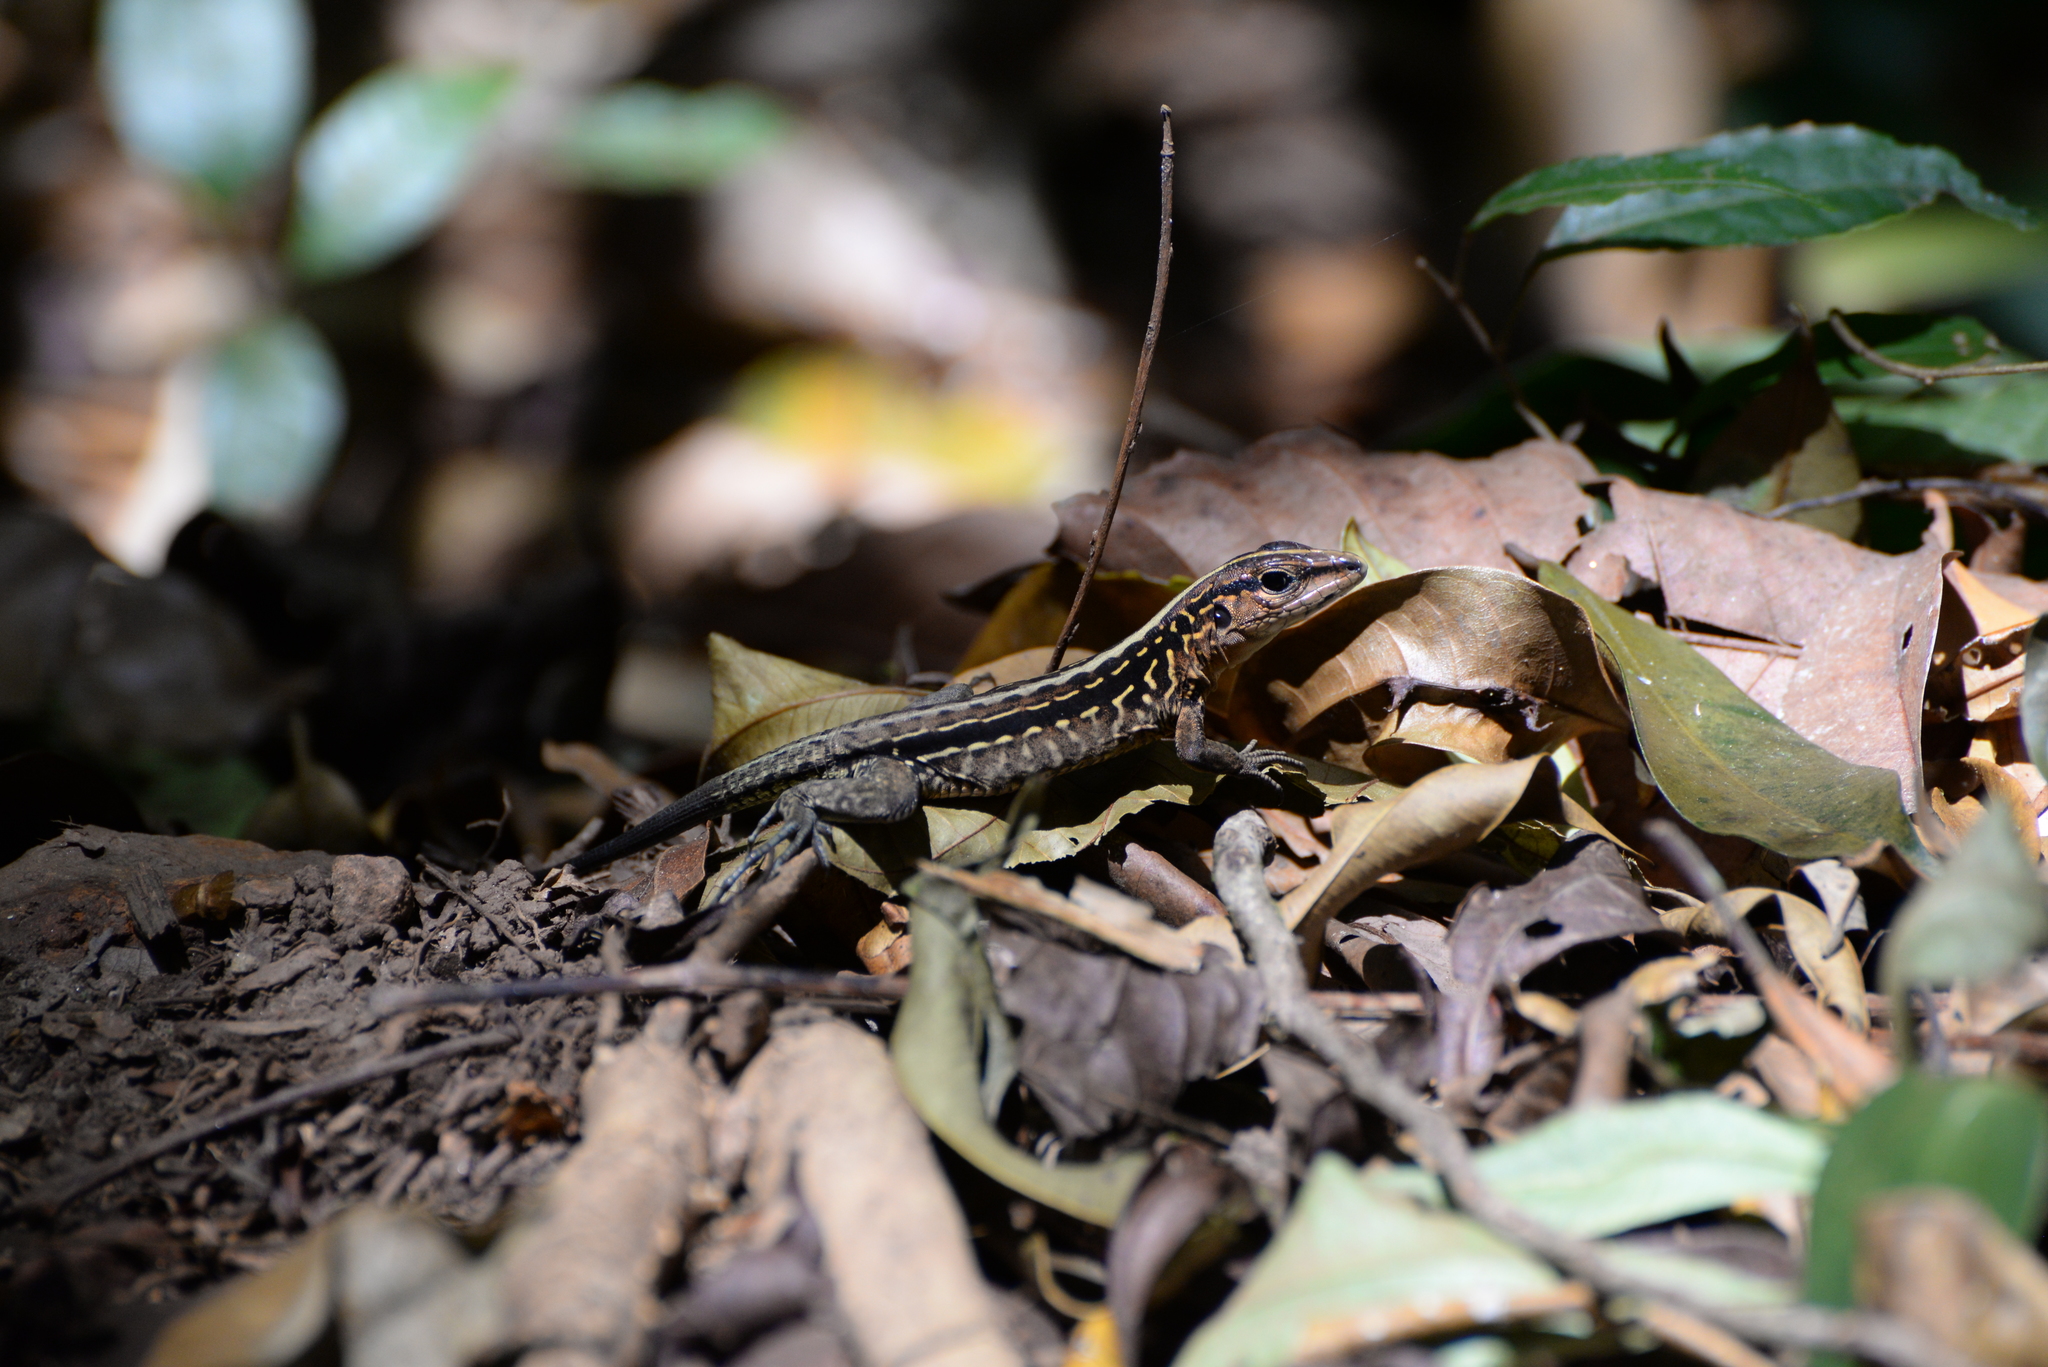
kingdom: Animalia
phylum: Chordata
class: Squamata
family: Teiidae
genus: Holcosus
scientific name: Holcosus festivus
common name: Middle american ameiva
